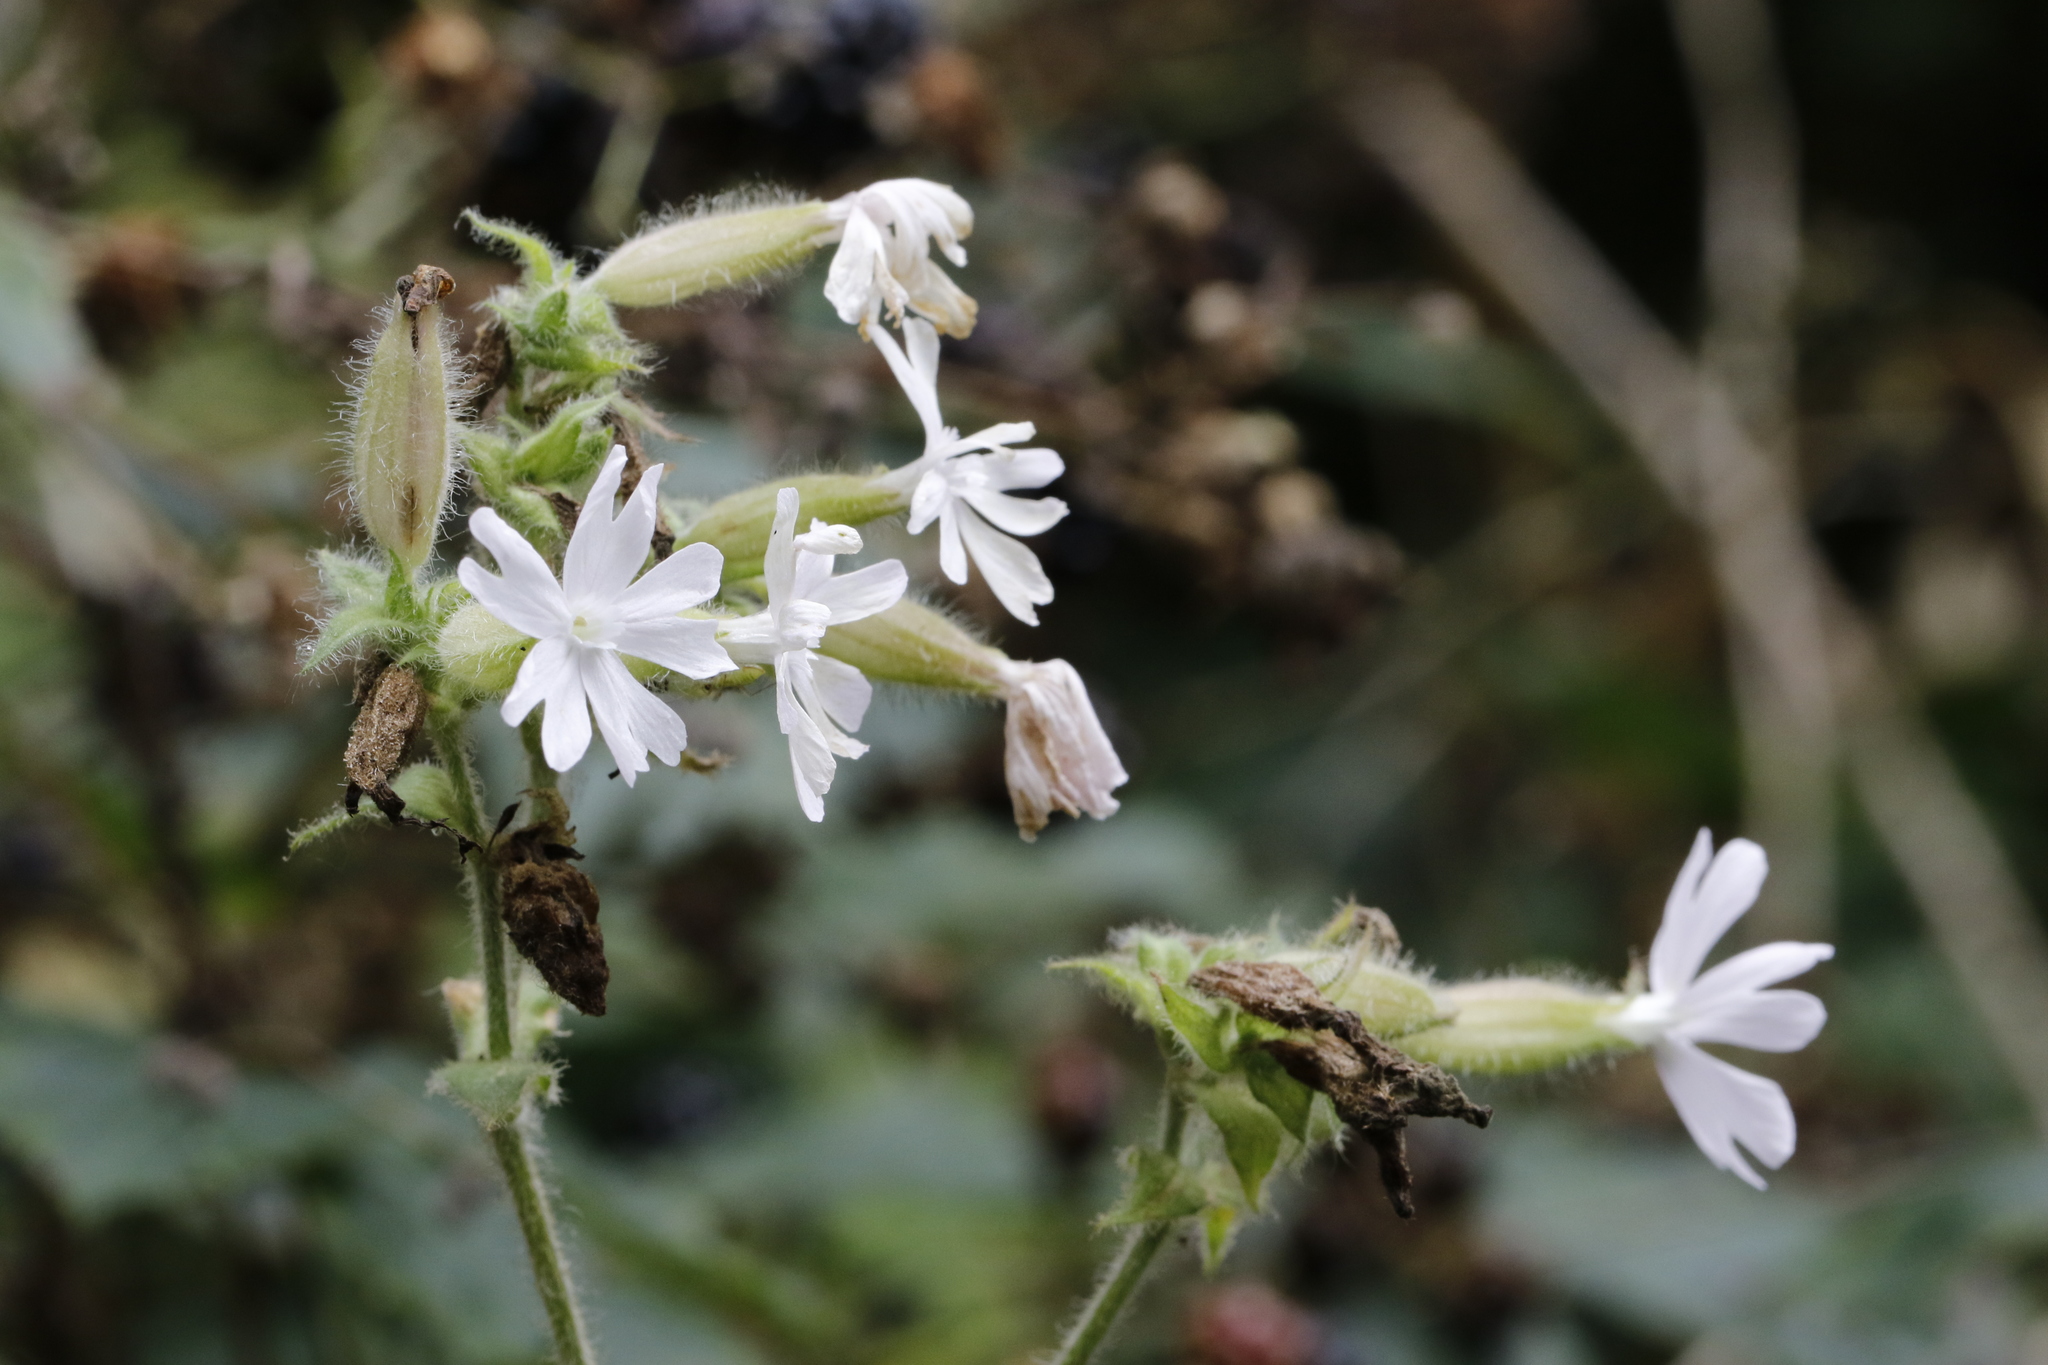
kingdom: Plantae
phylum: Tracheophyta
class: Magnoliopsida
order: Caryophyllales
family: Caryophyllaceae
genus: Silene
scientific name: Silene dioica
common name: Red campion
